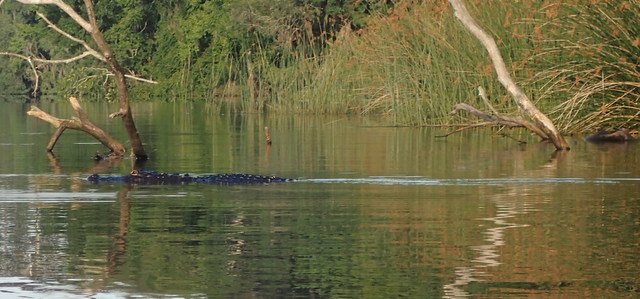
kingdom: Animalia
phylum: Chordata
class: Crocodylia
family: Alligatoridae
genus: Alligator
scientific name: Alligator mississippiensis
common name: American alligator
